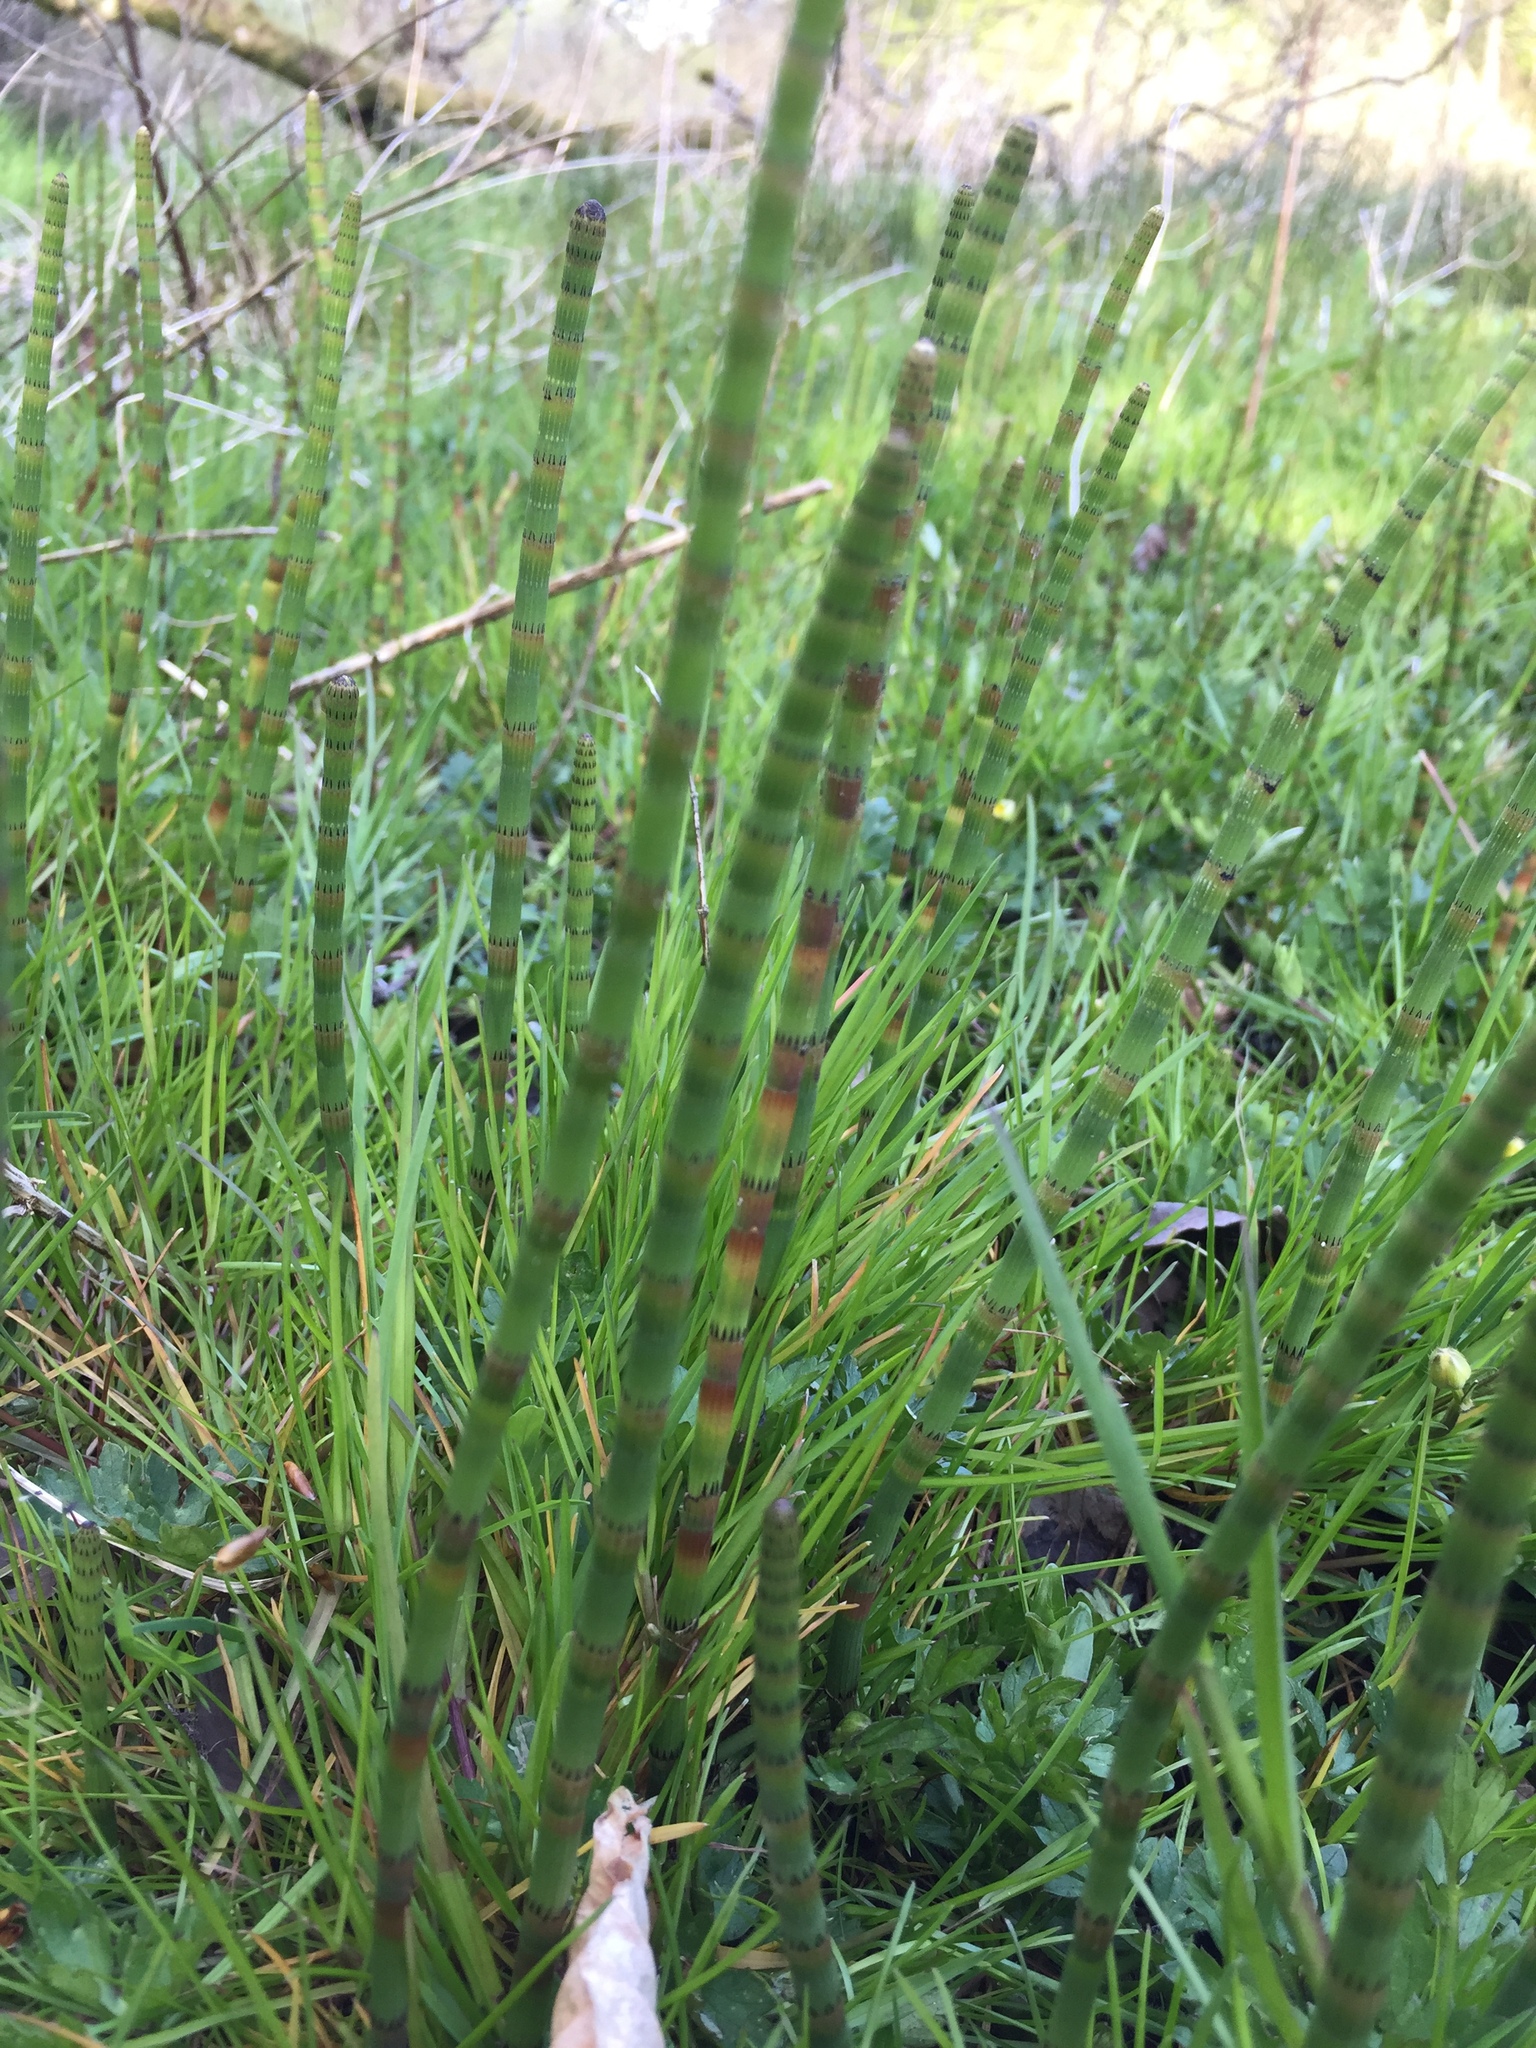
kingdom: Plantae
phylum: Tracheophyta
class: Polypodiopsida
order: Equisetales
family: Equisetaceae
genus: Equisetum
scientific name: Equisetum fluviatile
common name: Water horsetail
